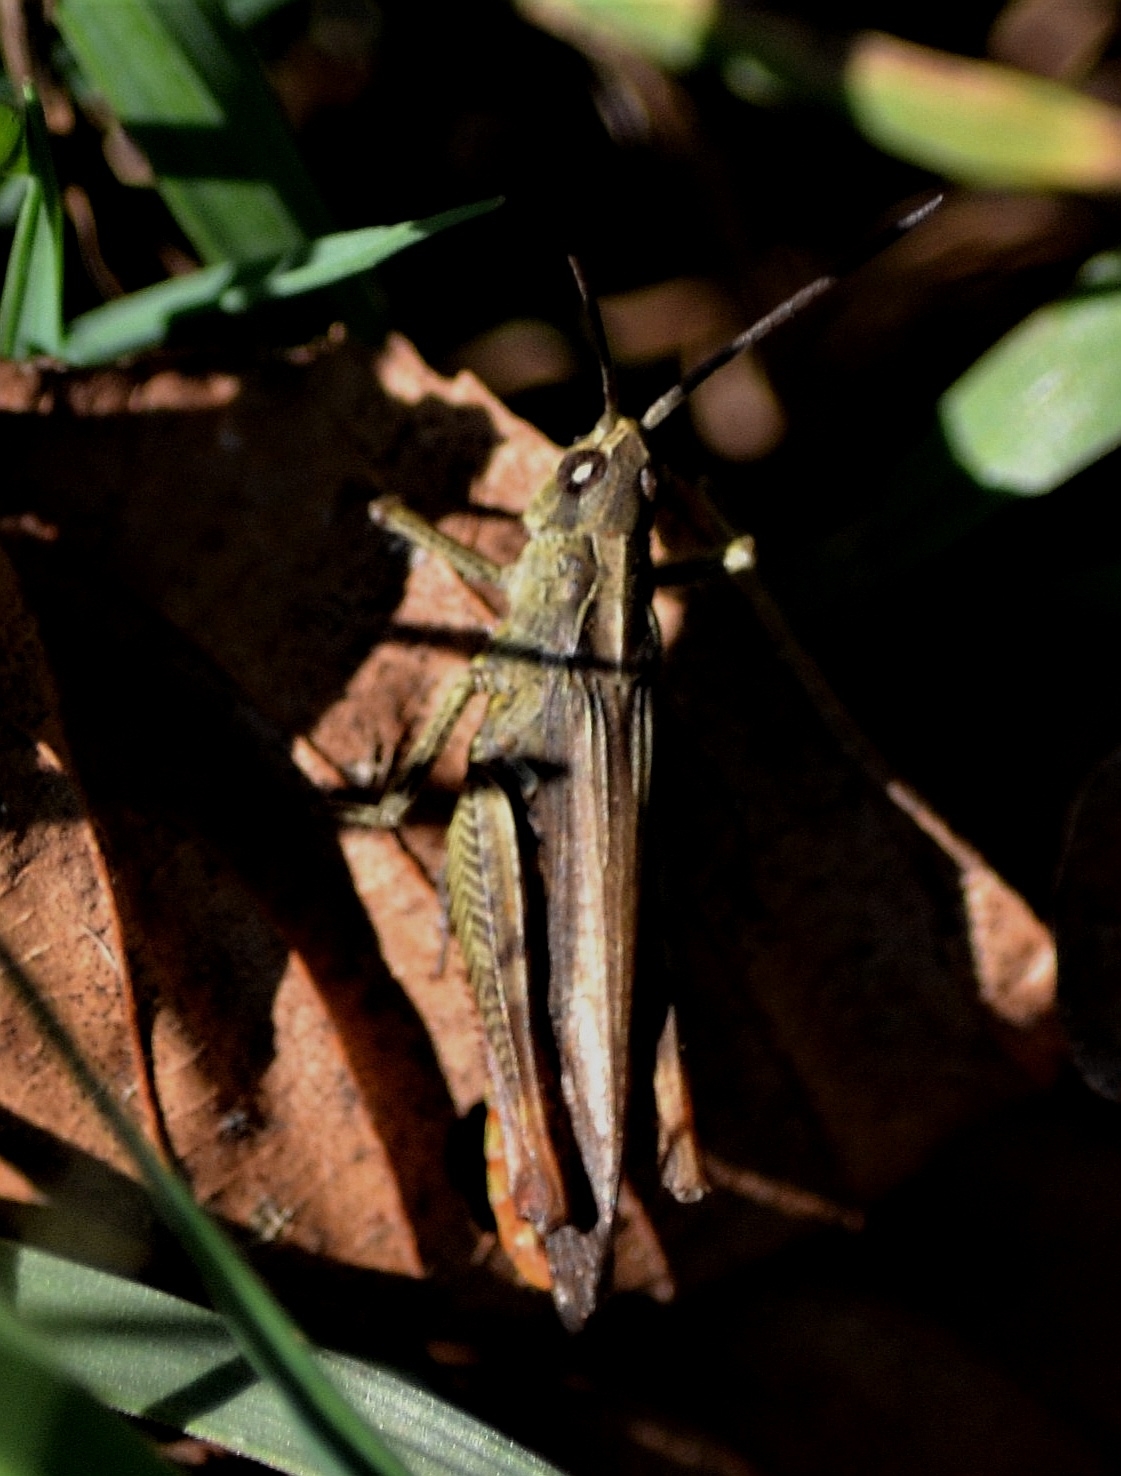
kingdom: Animalia
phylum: Arthropoda
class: Insecta
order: Orthoptera
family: Acrididae
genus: Chorthippus
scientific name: Chorthippus brunneus
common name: Field grasshopper
